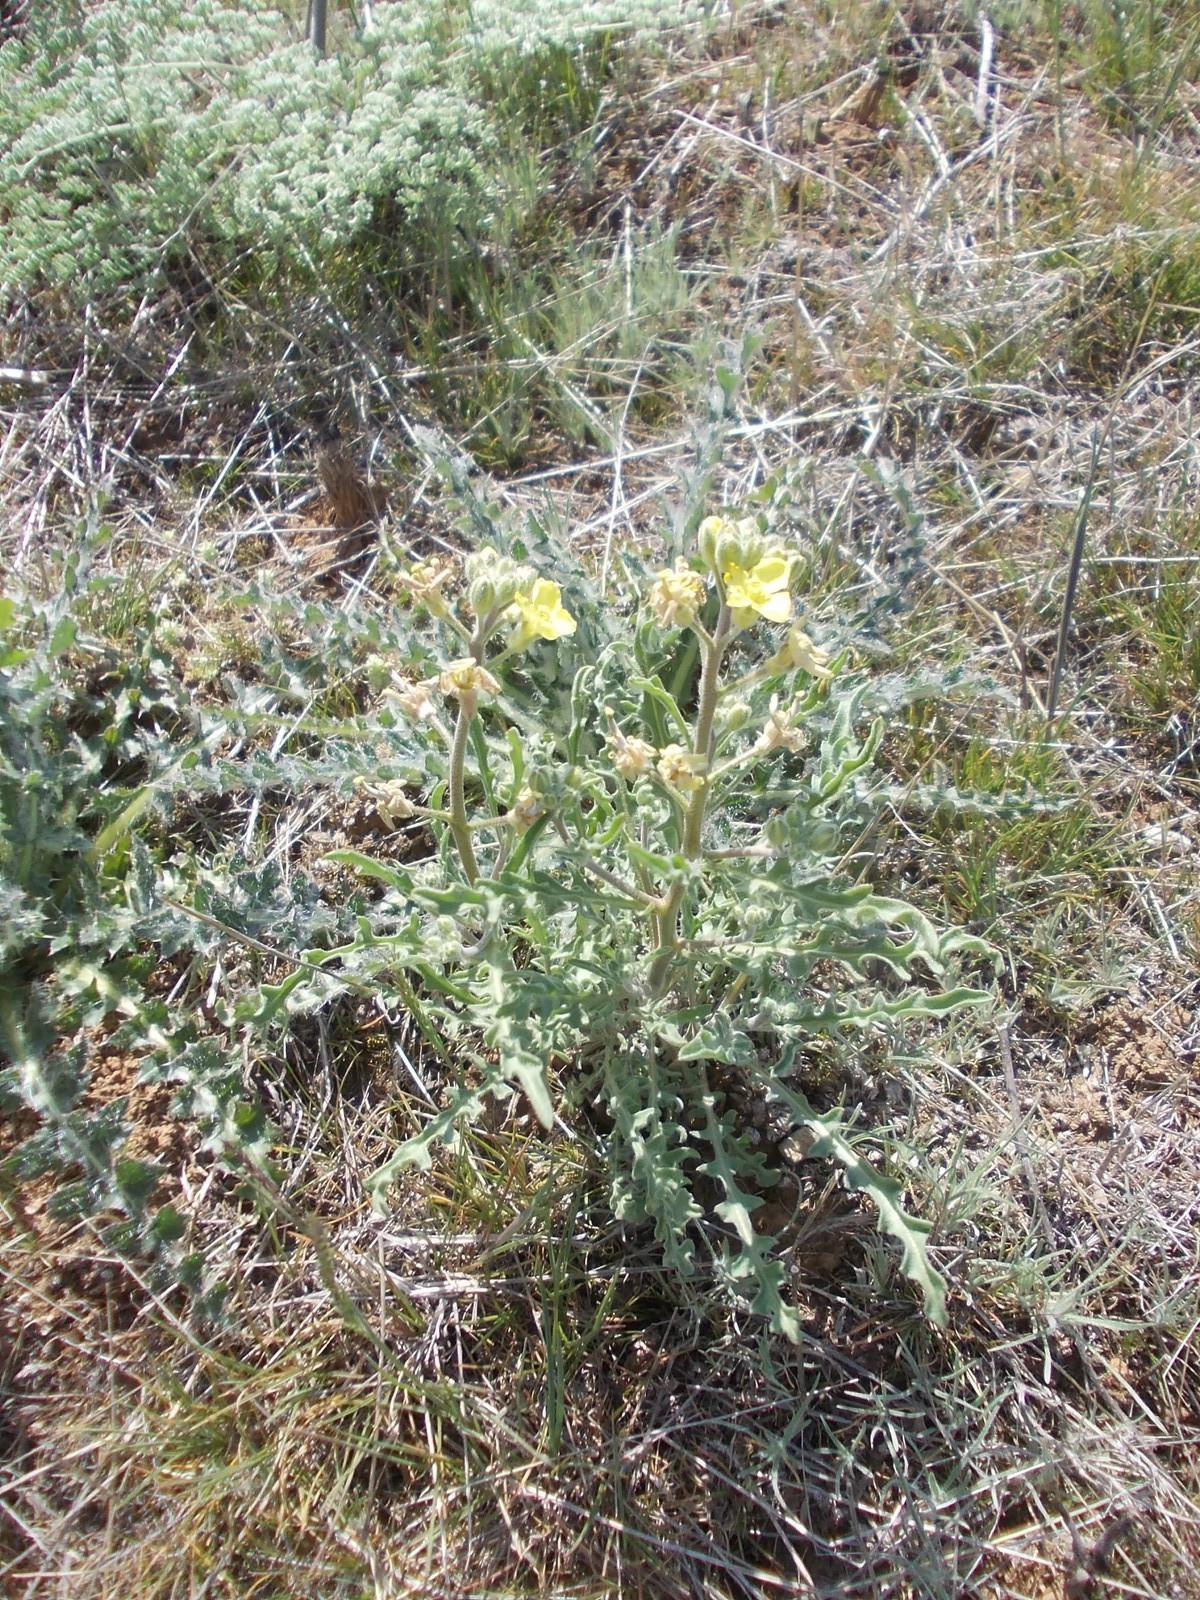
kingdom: Plantae
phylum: Tracheophyta
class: Magnoliopsida
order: Brassicales
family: Brassicaceae
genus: Sterigmostemum
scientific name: Sterigmostemum caspicum
